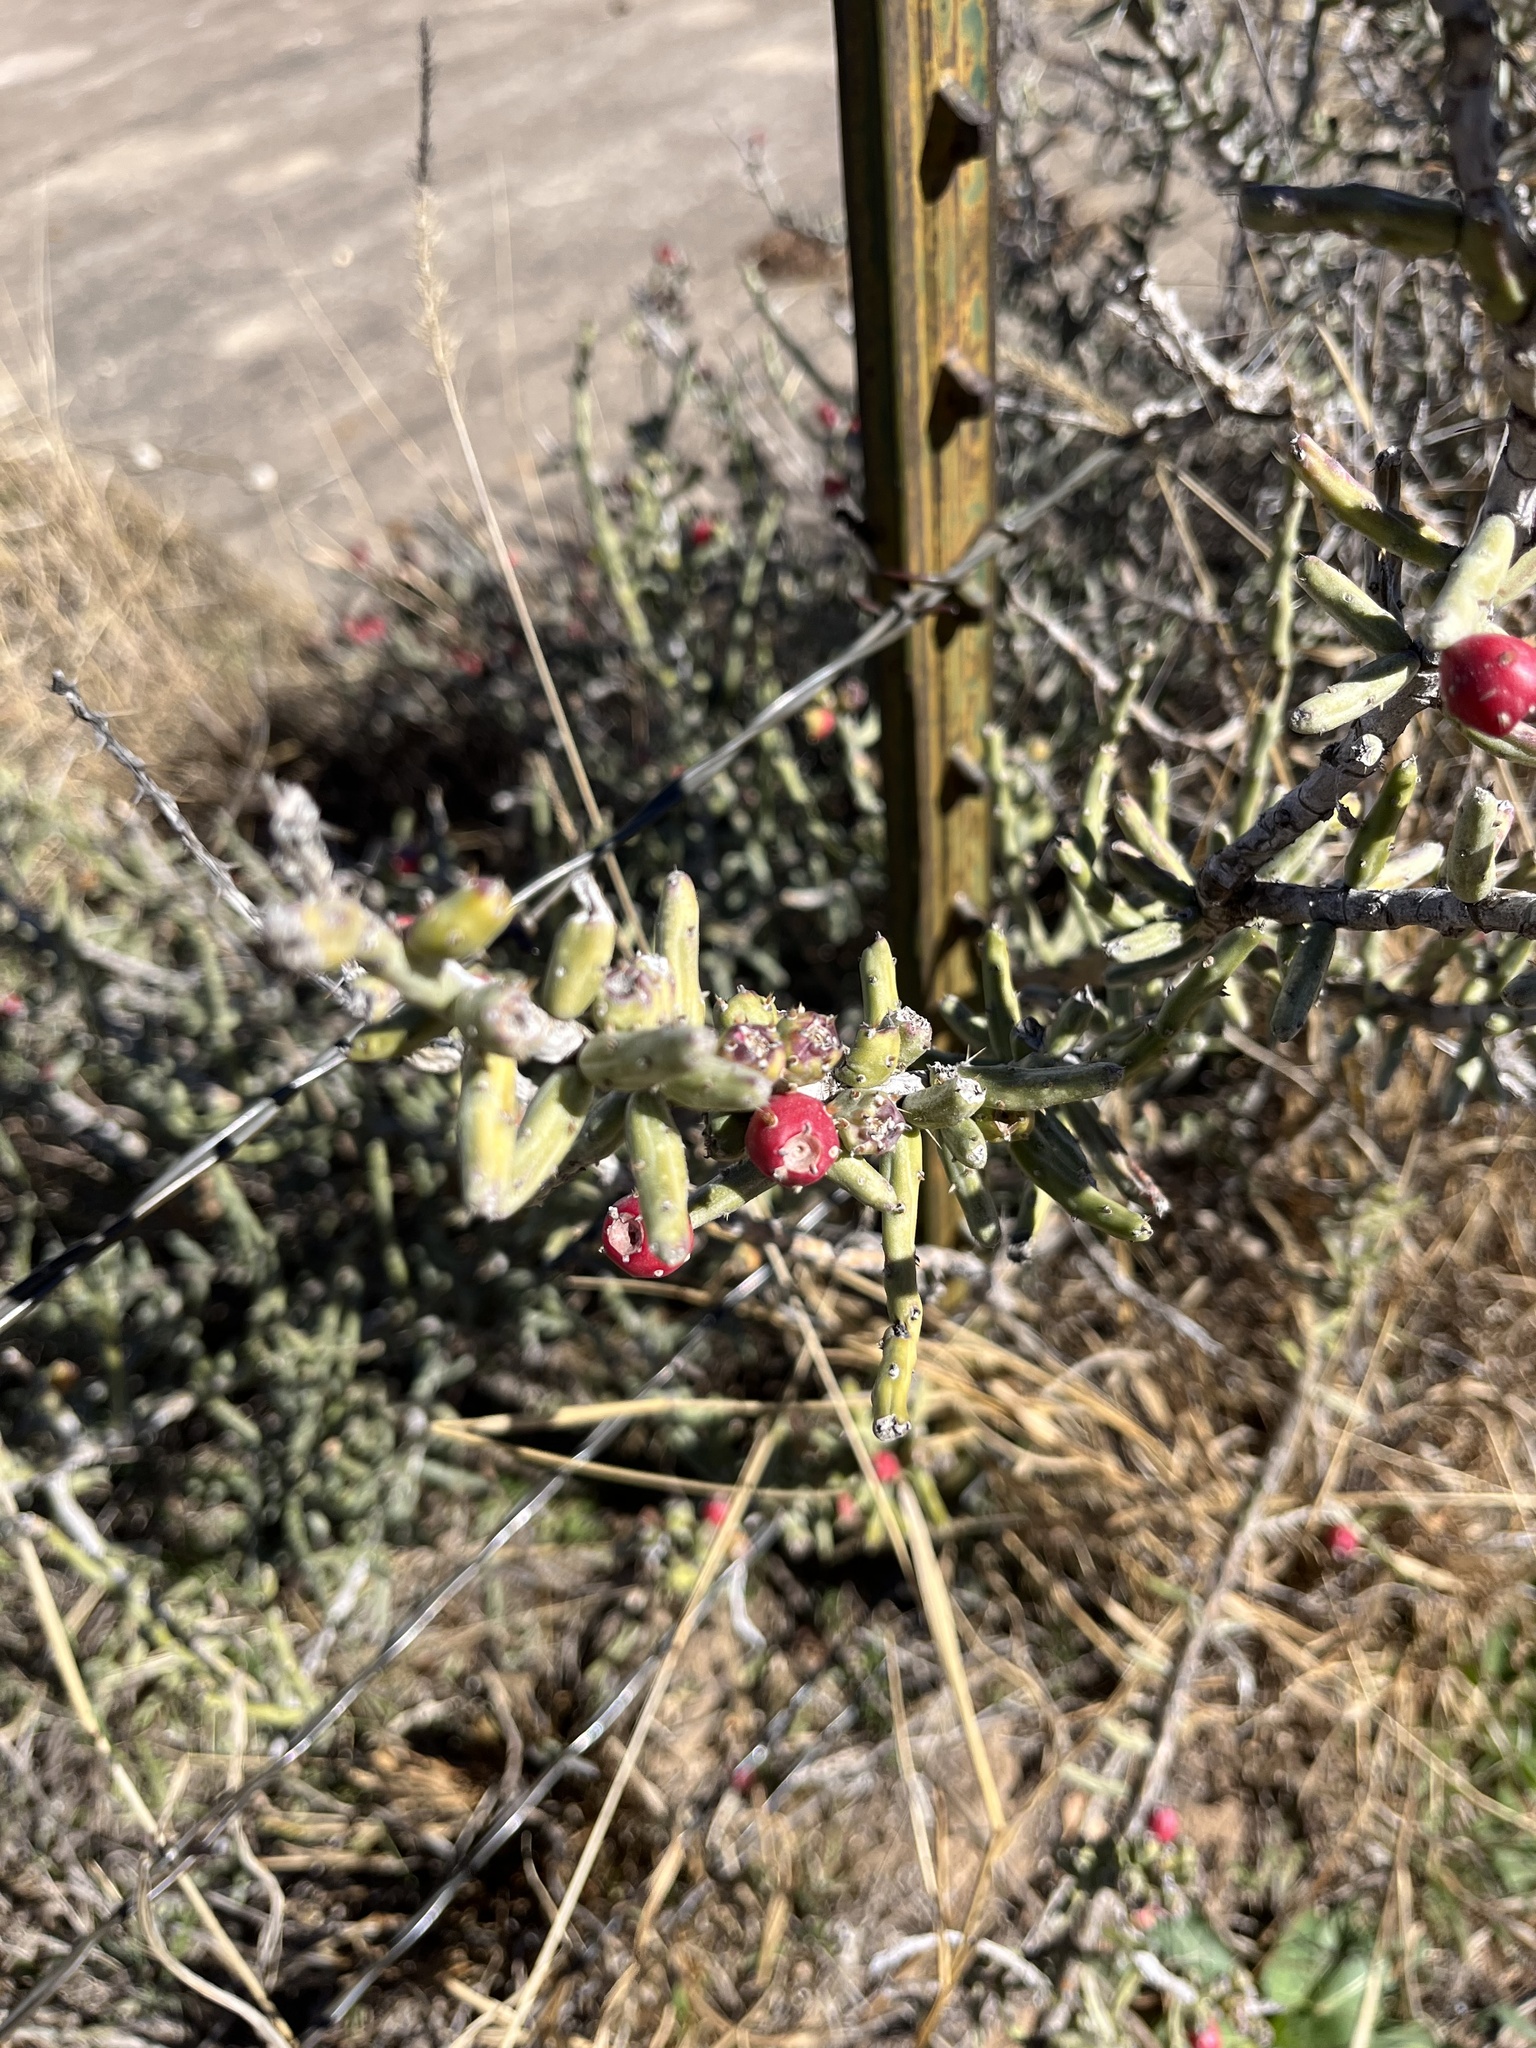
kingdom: Plantae
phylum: Tracheophyta
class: Magnoliopsida
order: Caryophyllales
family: Cactaceae
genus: Cylindropuntia
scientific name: Cylindropuntia leptocaulis
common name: Christmas cactus
